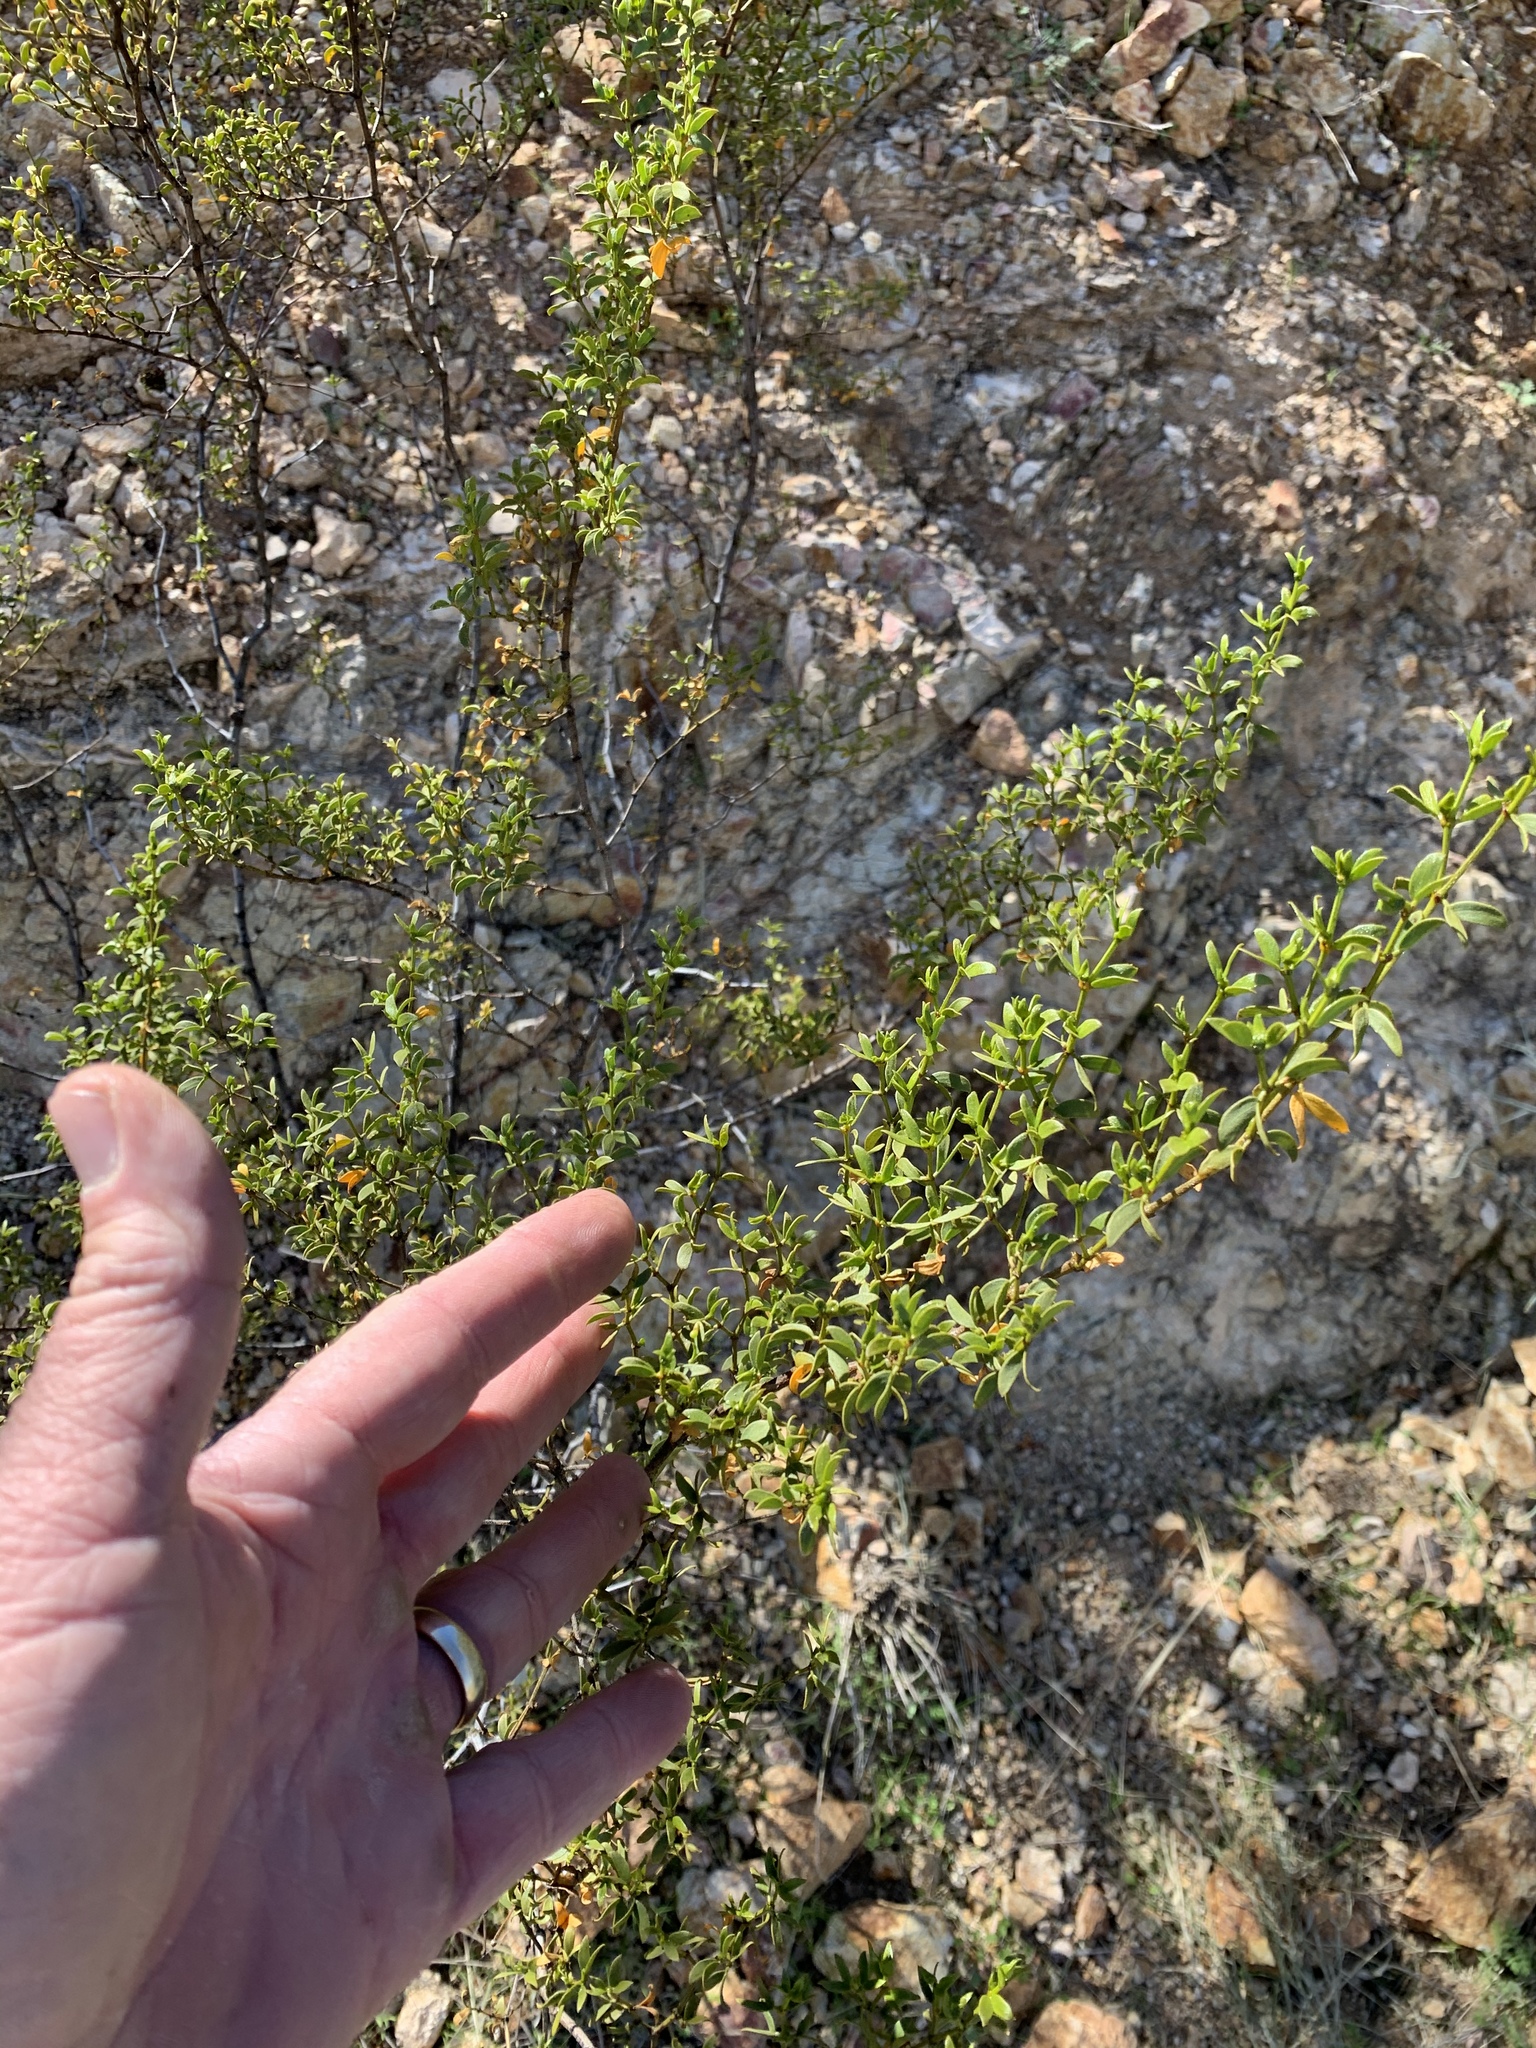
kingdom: Plantae
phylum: Tracheophyta
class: Magnoliopsida
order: Zygophyllales
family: Zygophyllaceae
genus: Larrea
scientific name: Larrea tridentata
